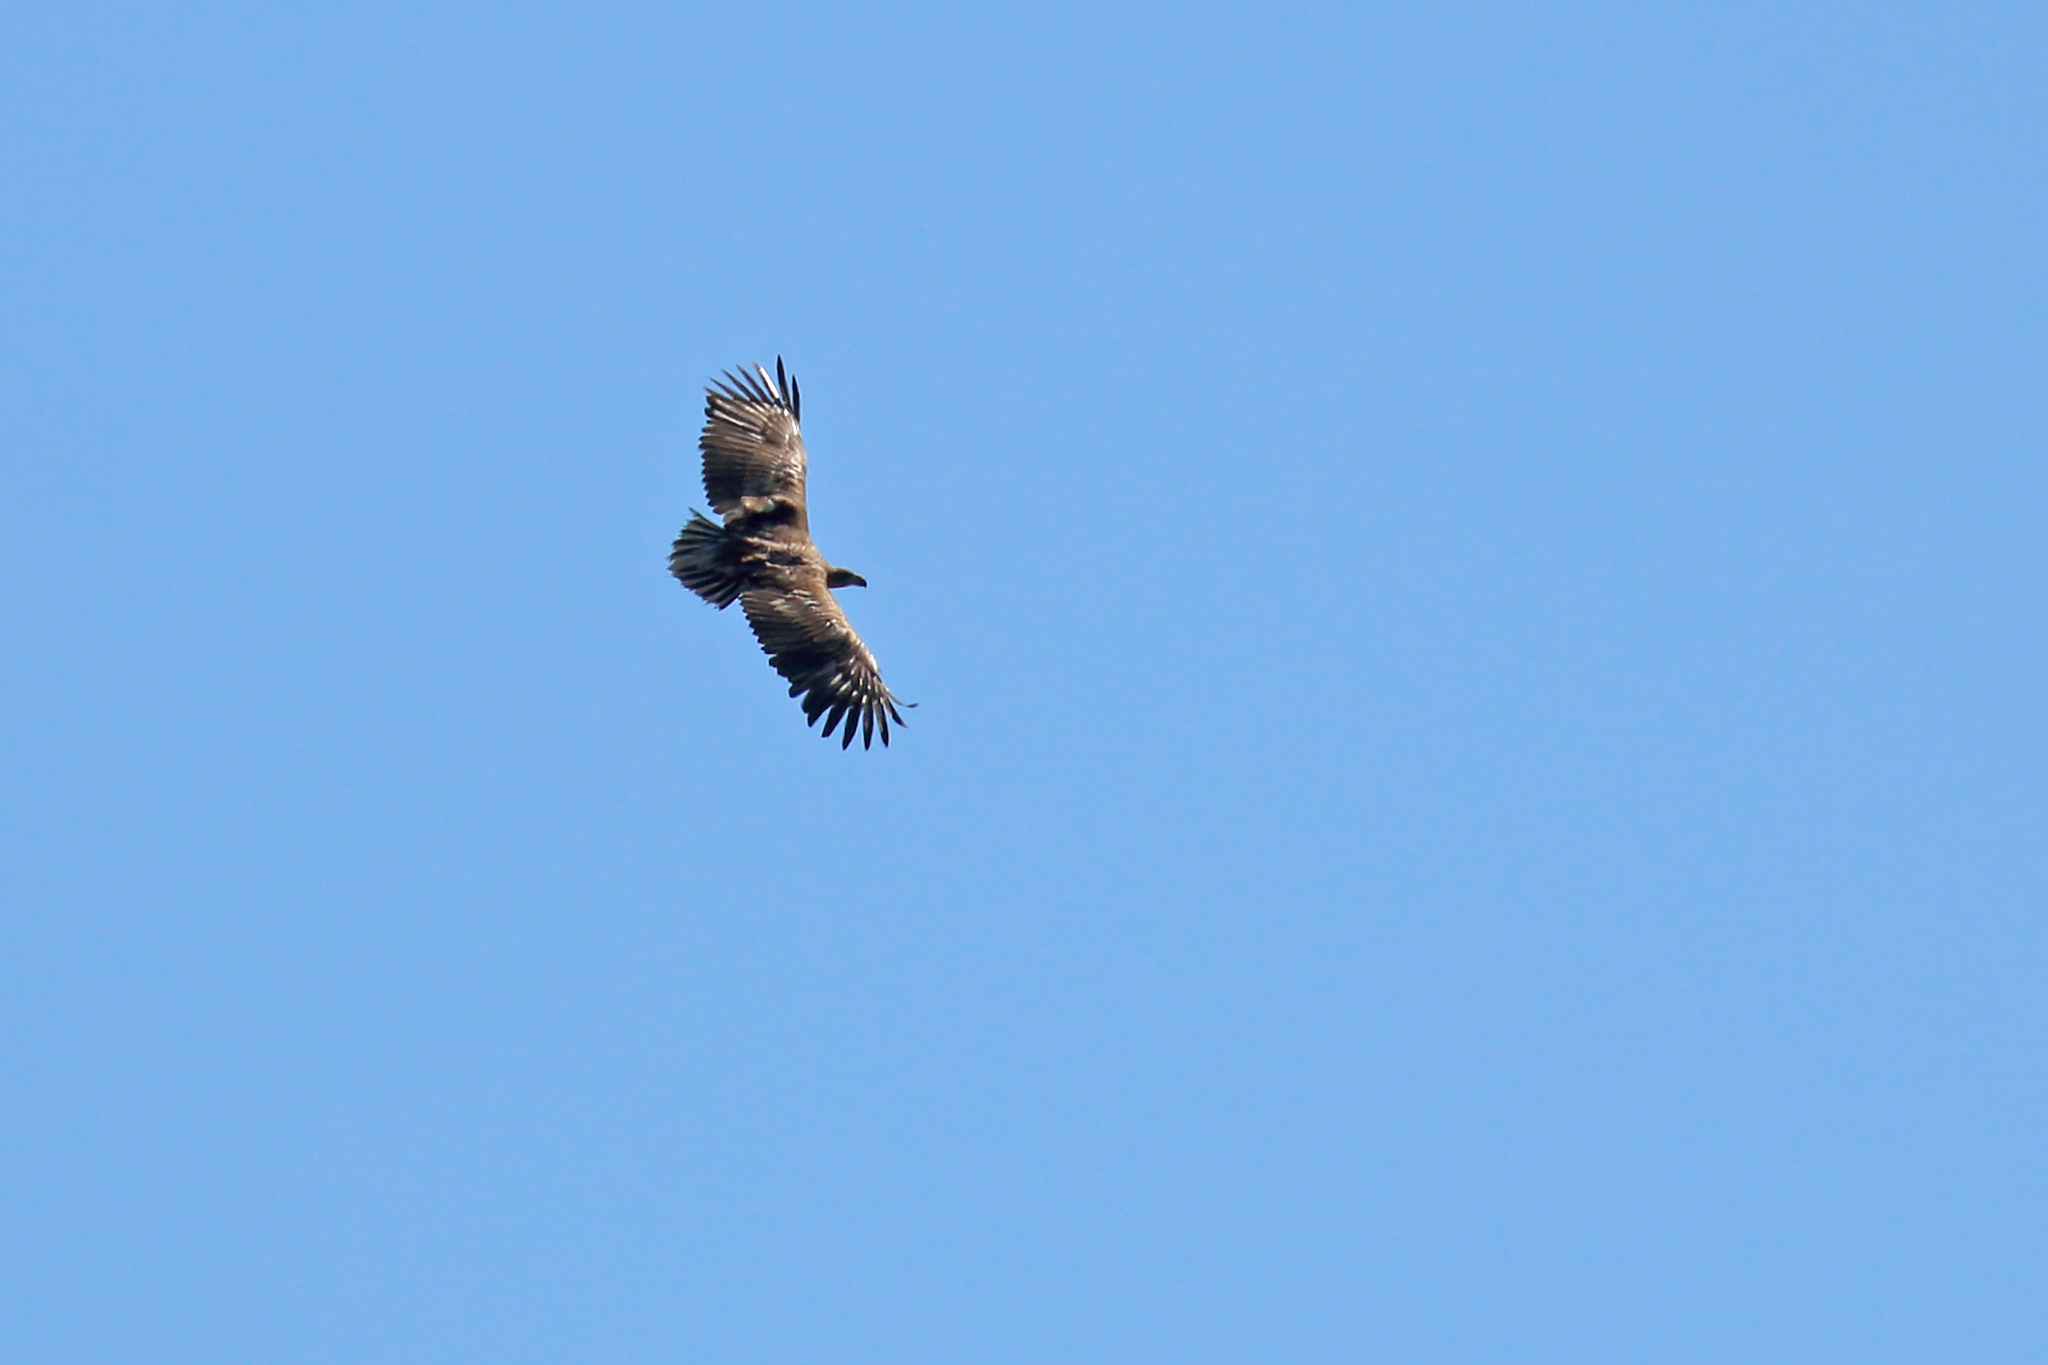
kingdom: Animalia
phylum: Chordata
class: Aves
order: Accipitriformes
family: Accipitridae
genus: Haliaeetus
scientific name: Haliaeetus albicilla
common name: White-tailed eagle
